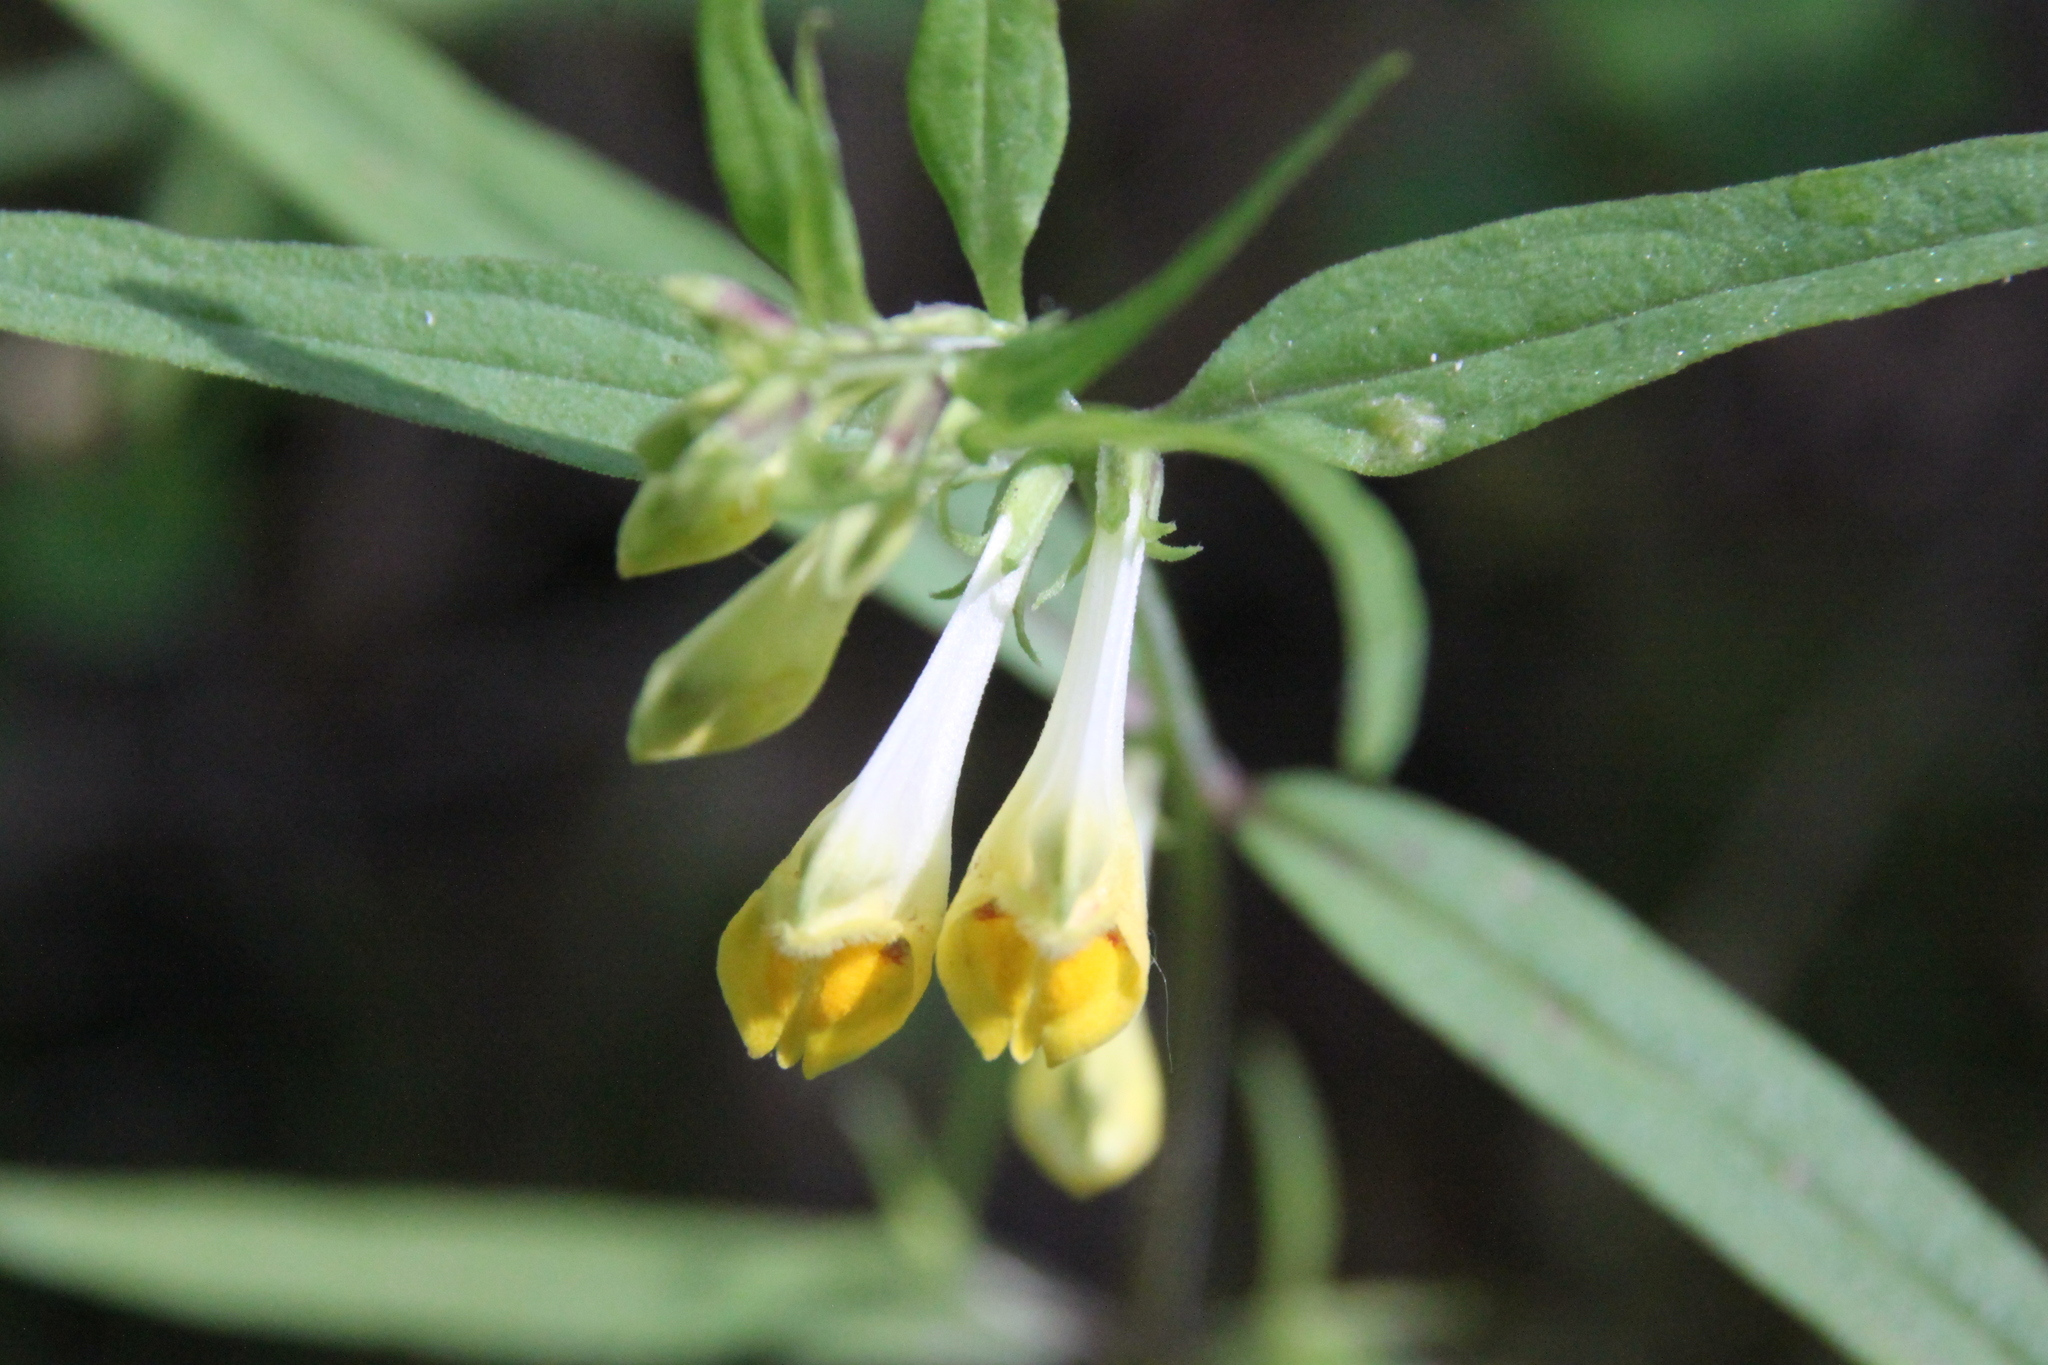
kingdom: Plantae
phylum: Tracheophyta
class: Magnoliopsida
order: Lamiales
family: Orobanchaceae
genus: Melampyrum
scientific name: Melampyrum pratense
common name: Common cow-wheat
